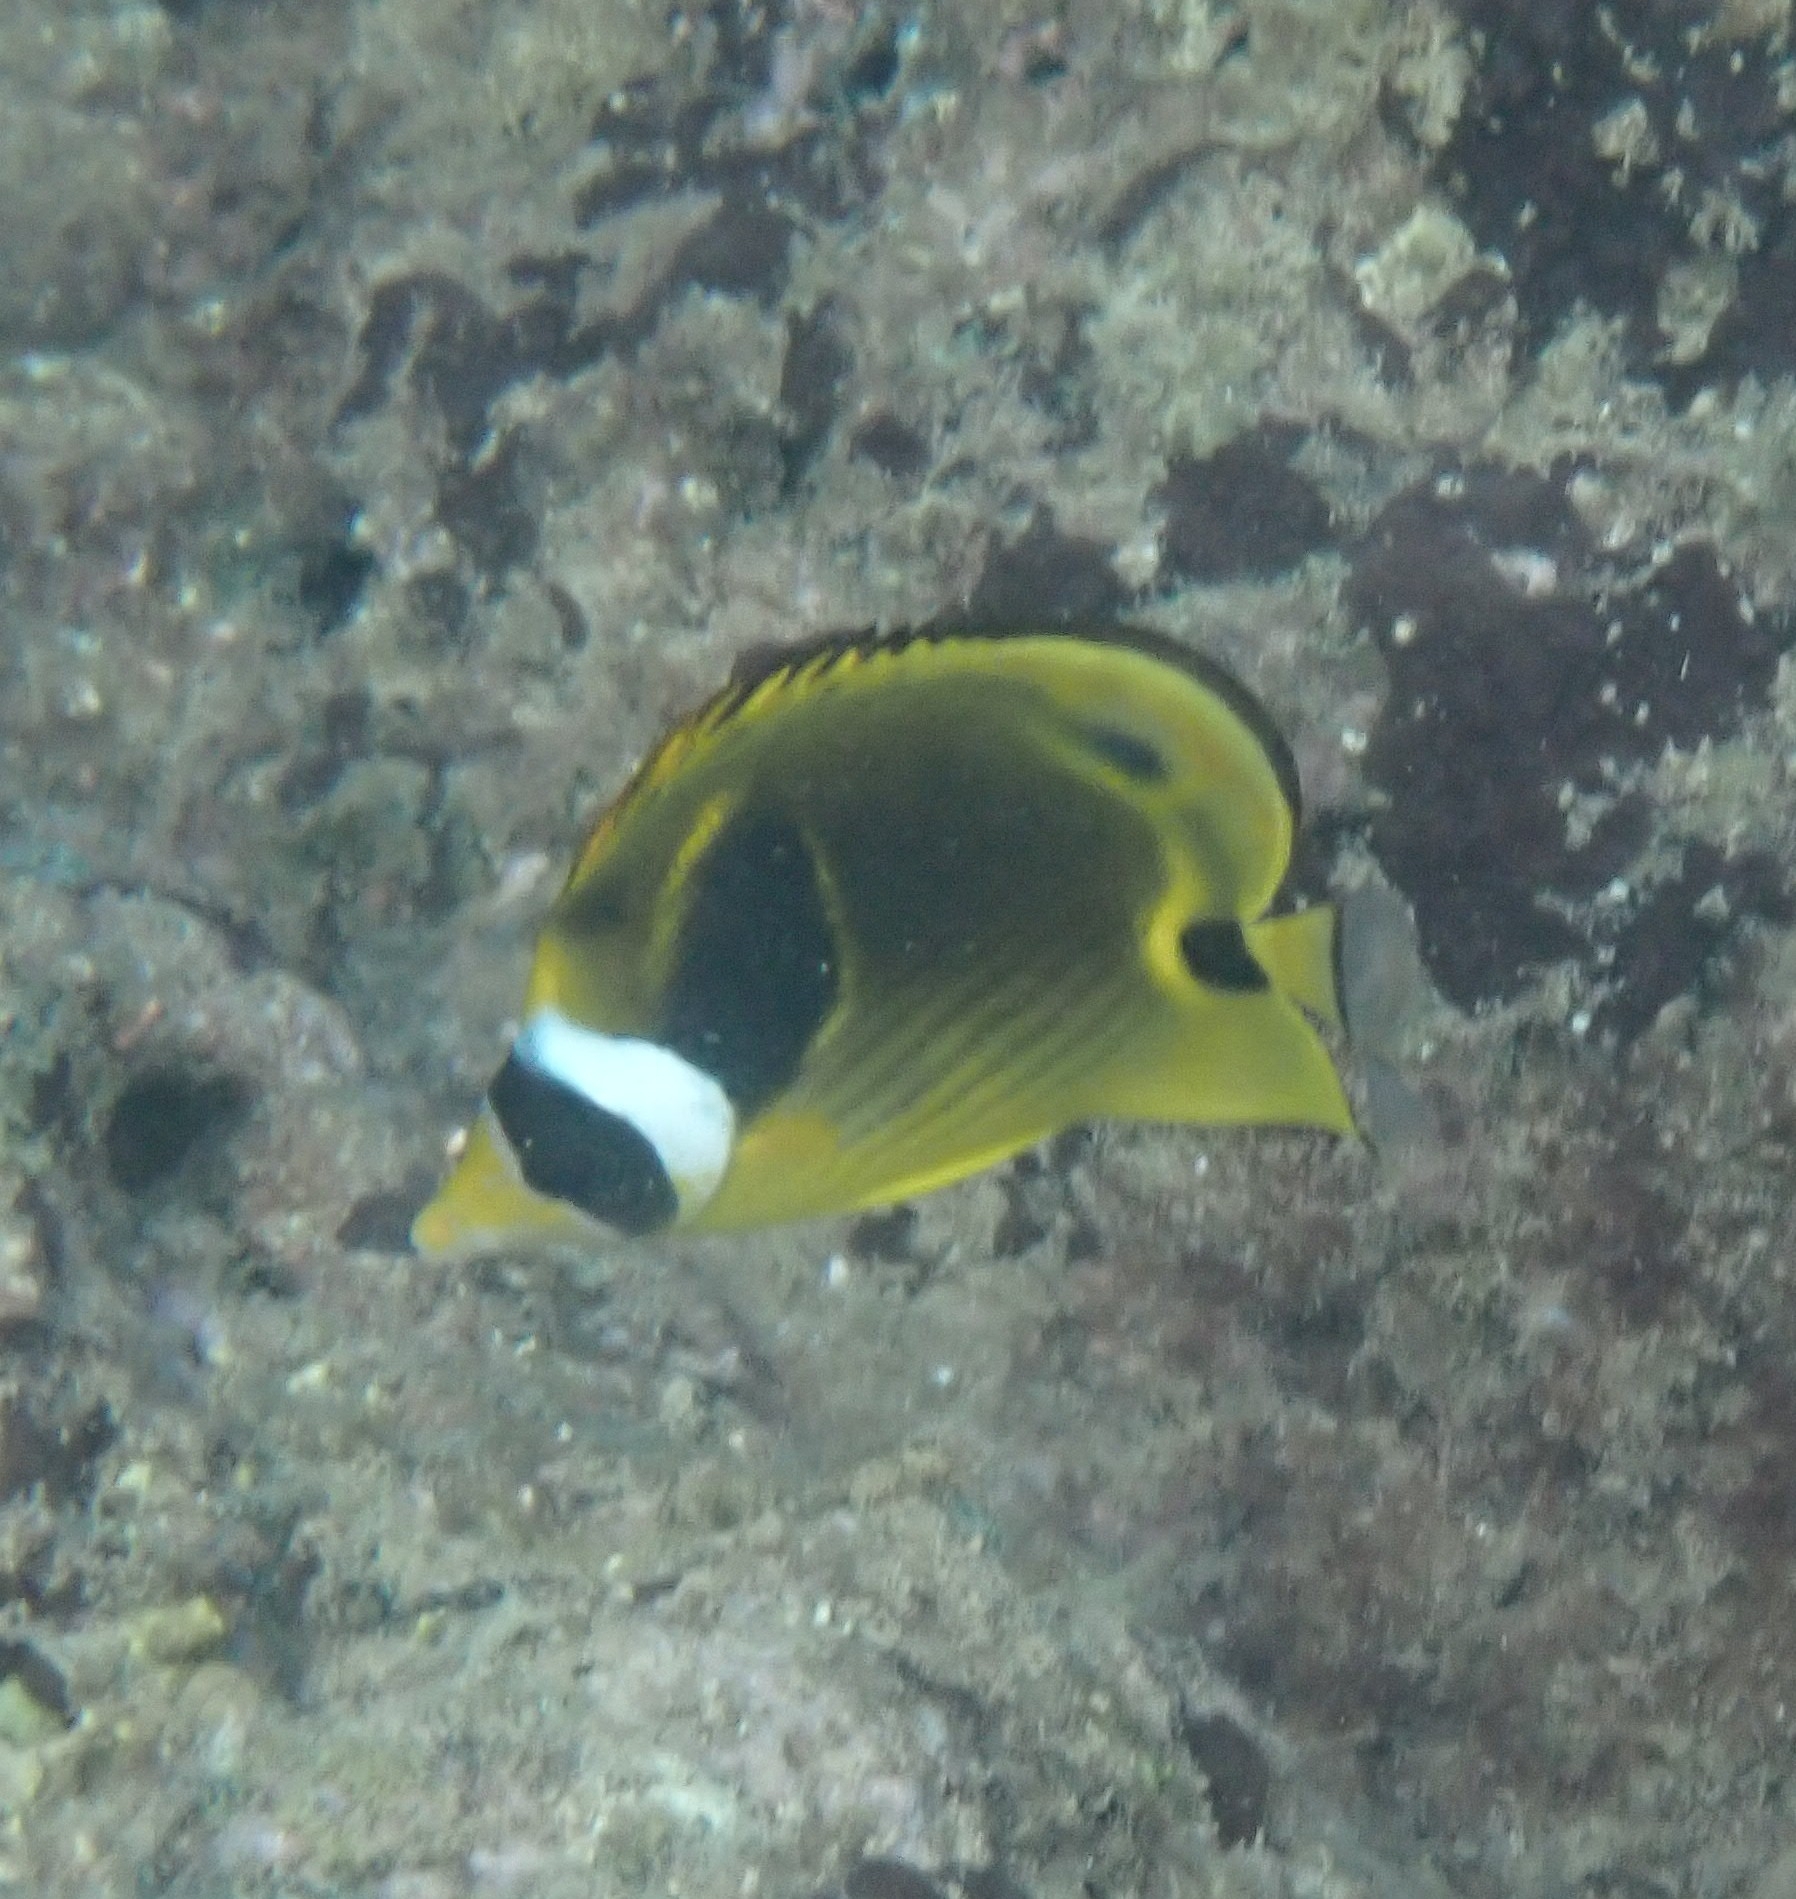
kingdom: Animalia
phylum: Chordata
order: Perciformes
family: Chaetodontidae
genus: Chaetodon
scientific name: Chaetodon lunula
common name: Raccoon butterflyfish
